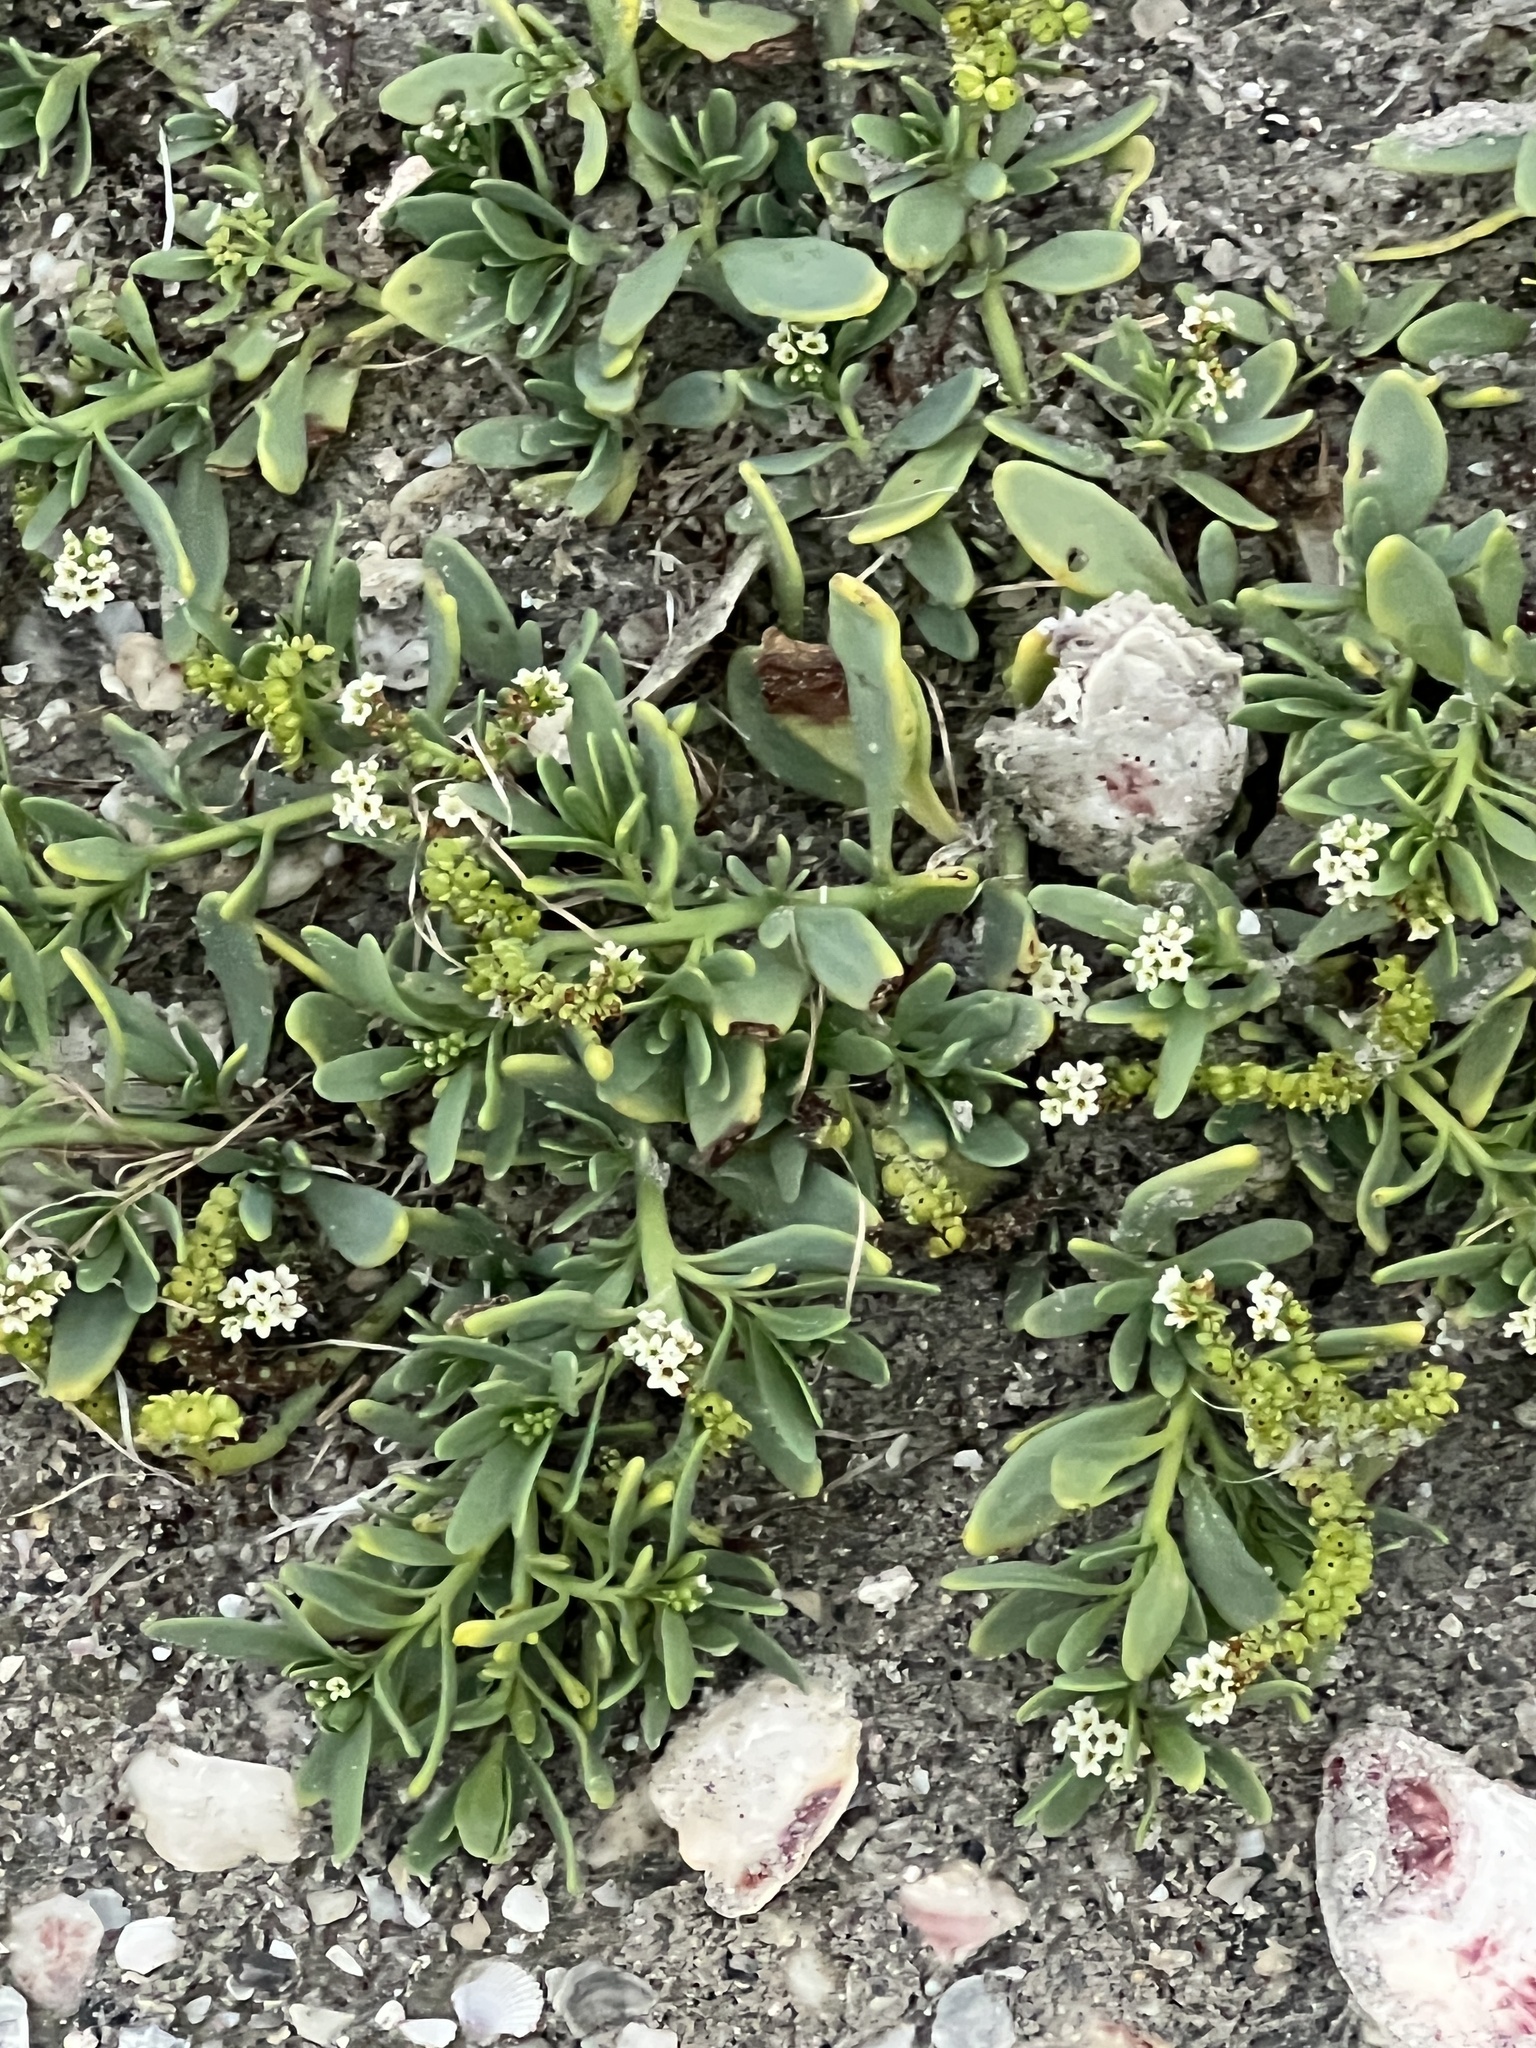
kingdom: Plantae
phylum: Tracheophyta
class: Magnoliopsida
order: Boraginales
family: Heliotropiaceae
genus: Heliotropium
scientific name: Heliotropium curassavicum
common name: Seaside heliotrope
